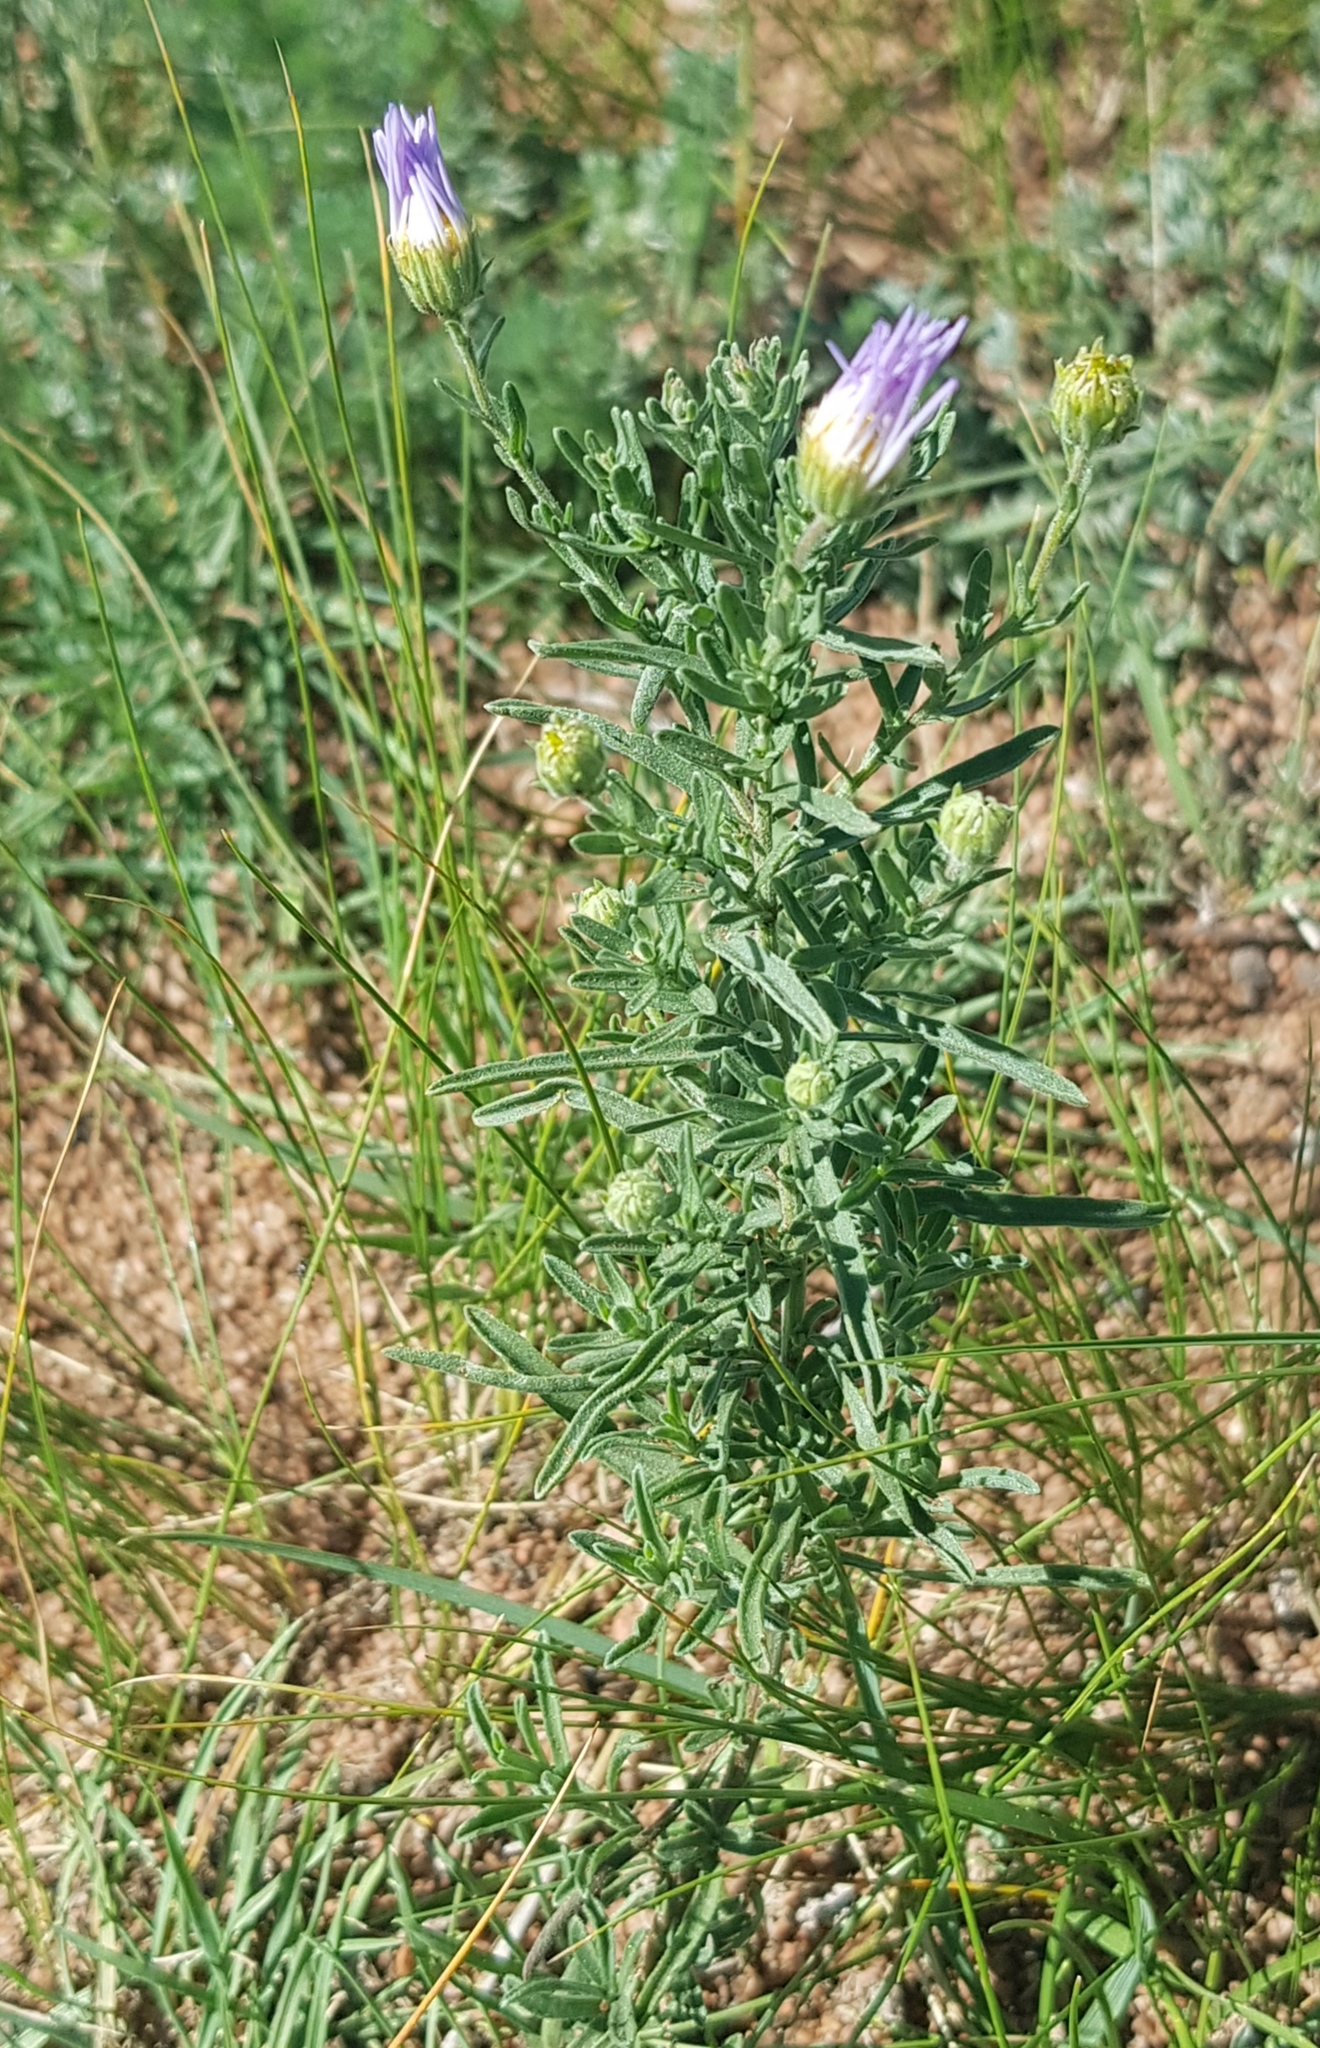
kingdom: Plantae
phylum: Tracheophyta
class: Magnoliopsida
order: Asterales
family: Asteraceae
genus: Heteropappus
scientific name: Heteropappus altaicus
